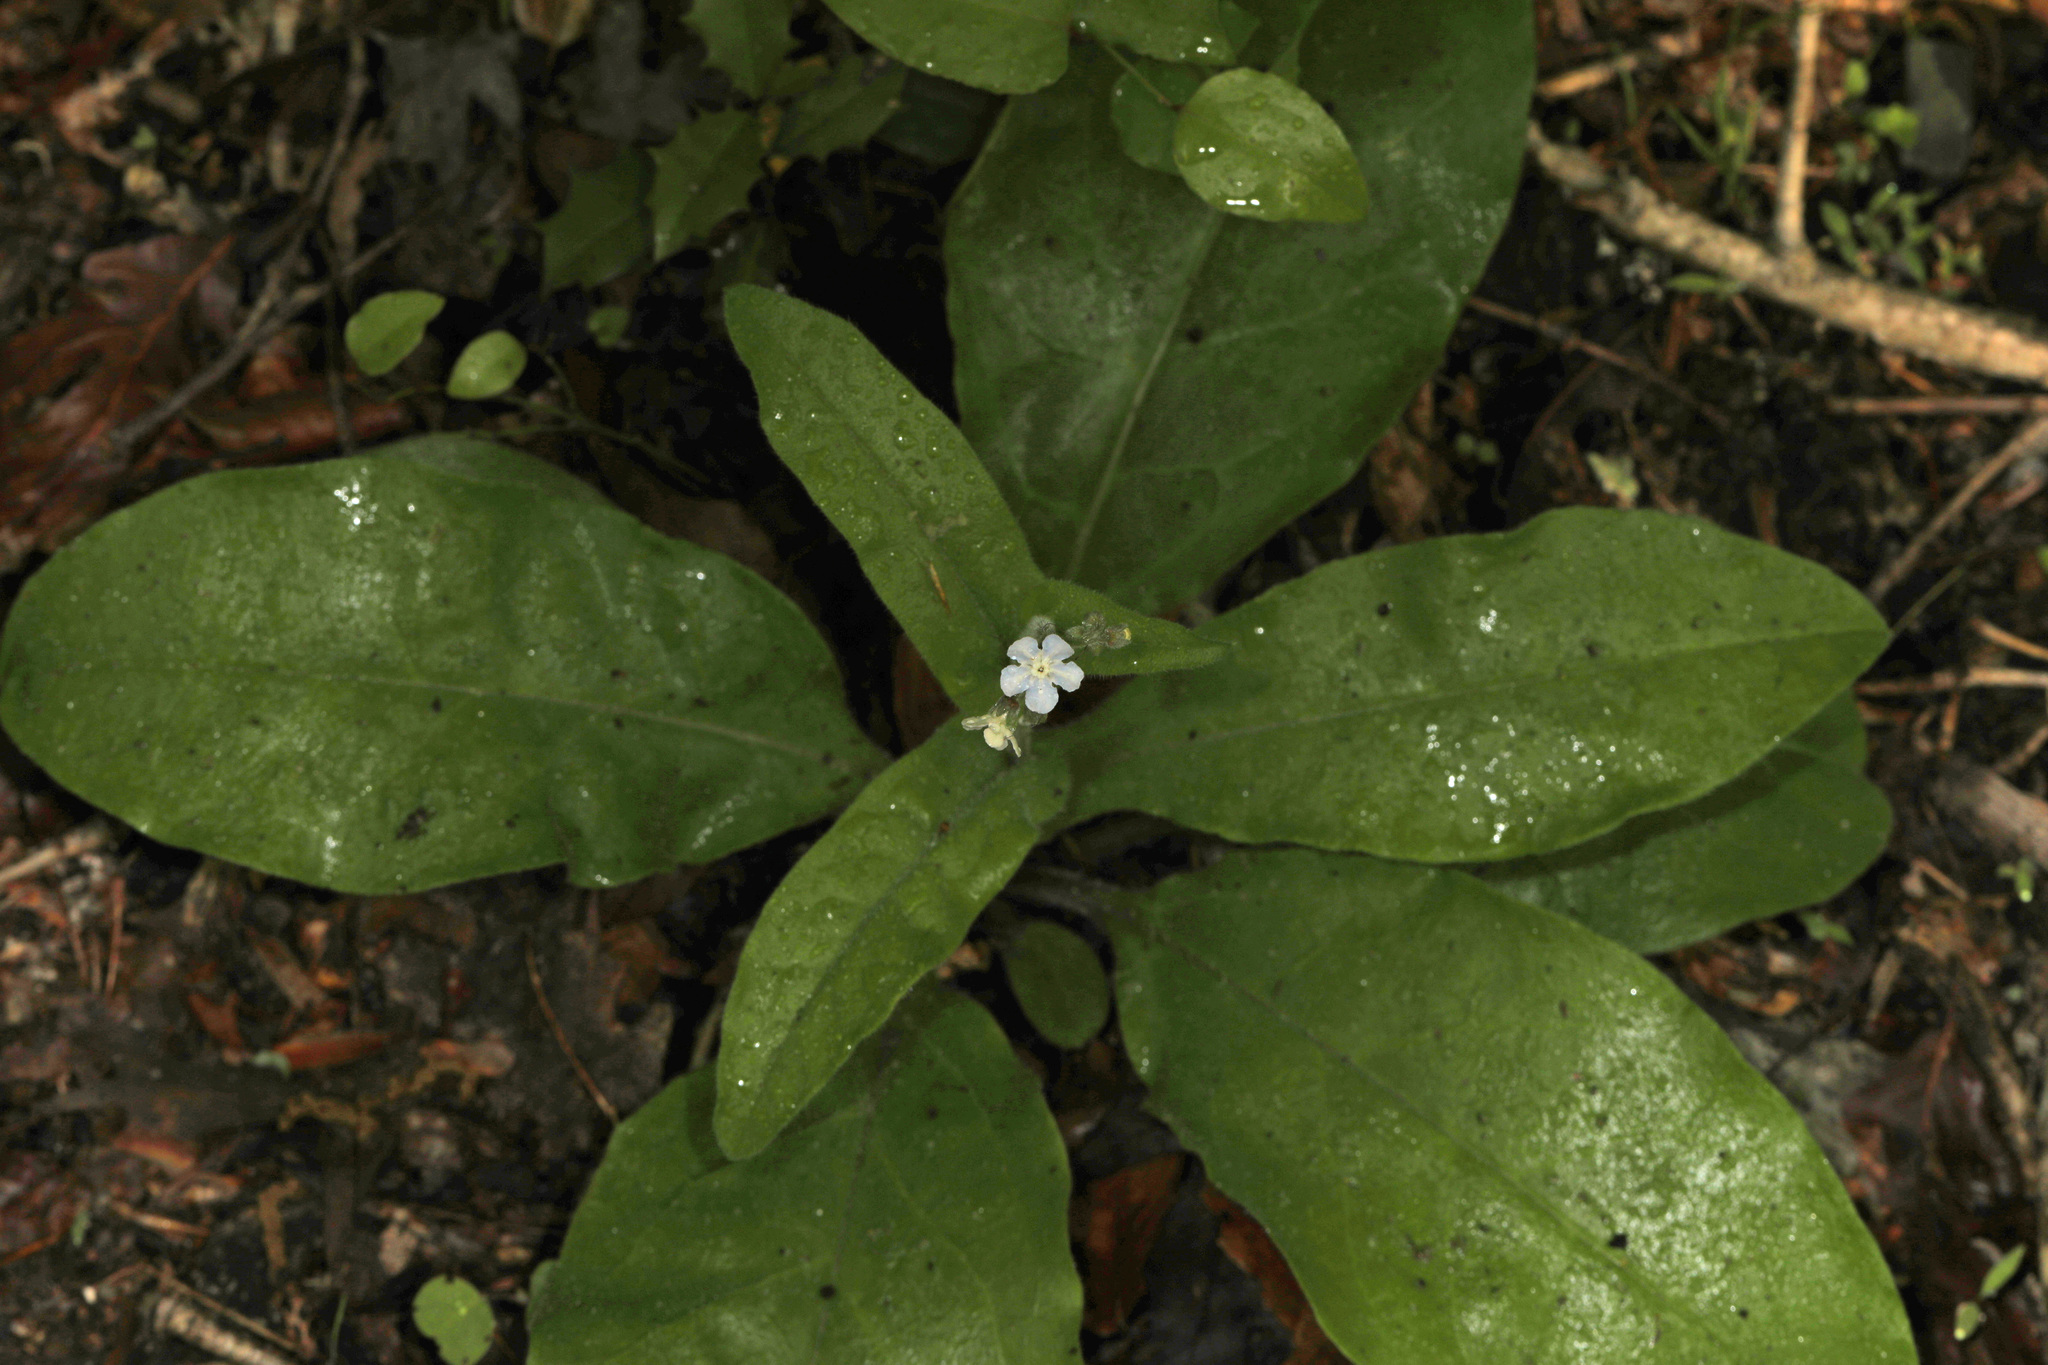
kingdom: Plantae
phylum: Tracheophyta
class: Magnoliopsida
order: Boraginales
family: Boraginaceae
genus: Andersonglossum
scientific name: Andersonglossum virginianum
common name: Wild comfrey
